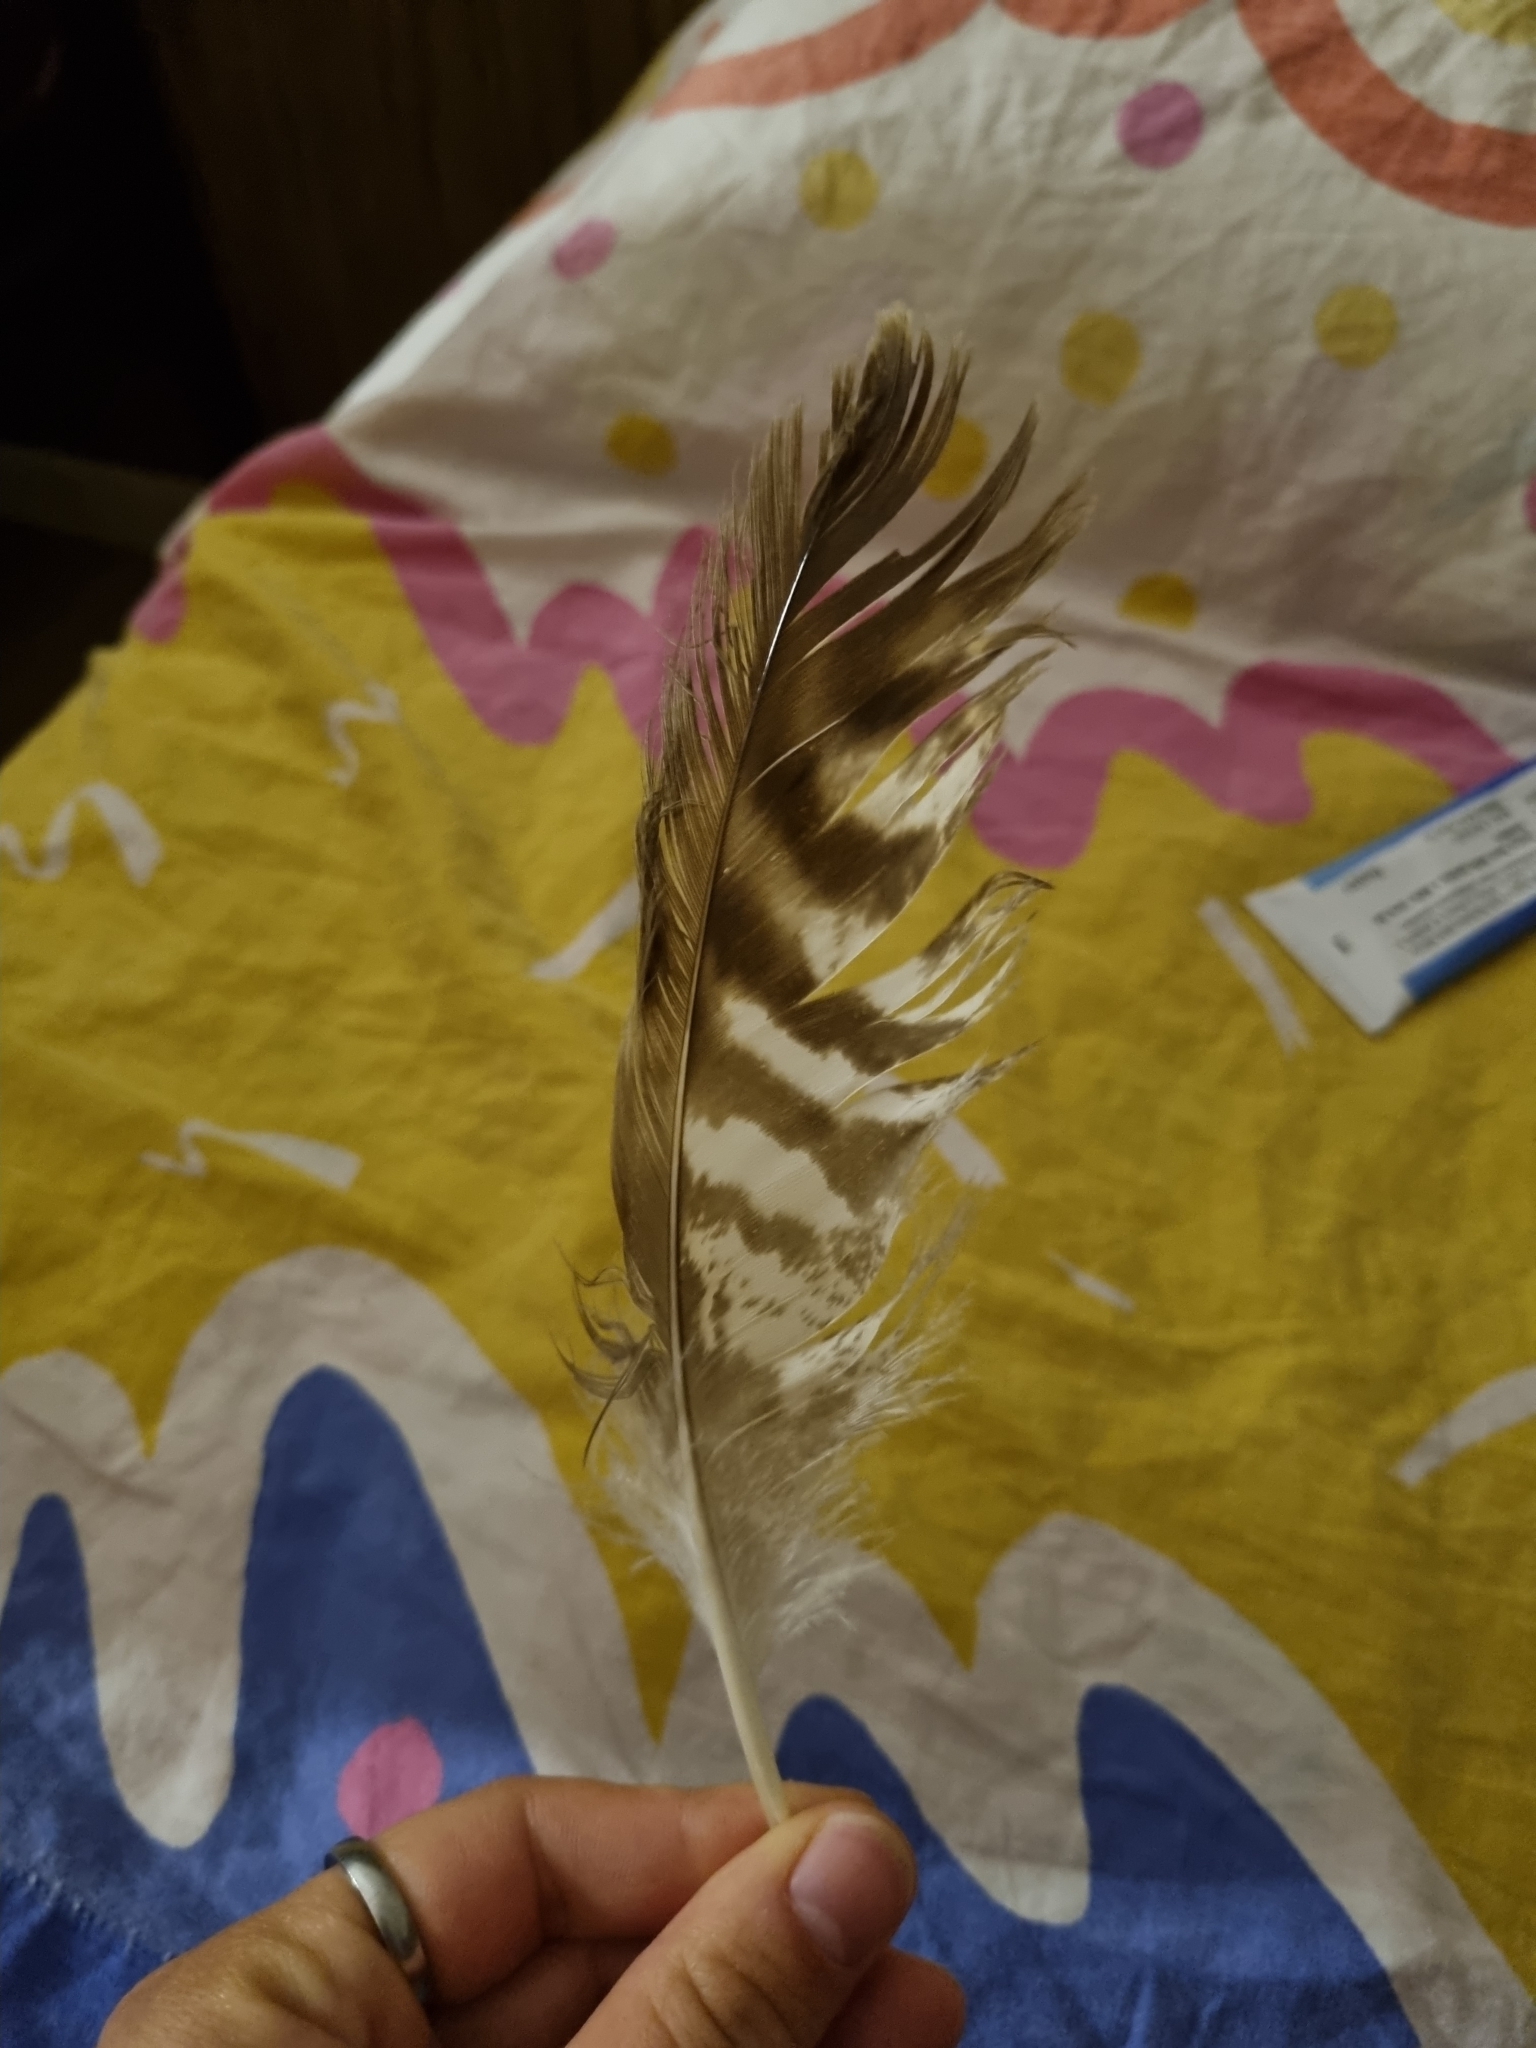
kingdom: Animalia
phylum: Chordata
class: Aves
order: Accipitriformes
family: Accipitridae
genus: Buteo
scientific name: Buteo buteo
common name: Common buzzard
